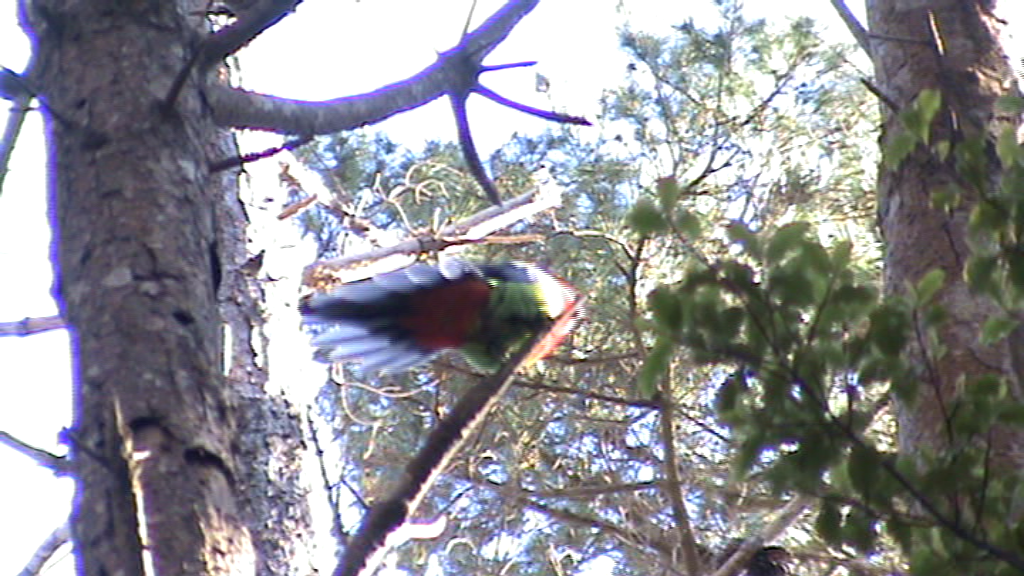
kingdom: Animalia
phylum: Chordata
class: Aves
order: Psittaciformes
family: Psittacidae
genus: Platycercus
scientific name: Platycercus eximius
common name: Eastern rosella
